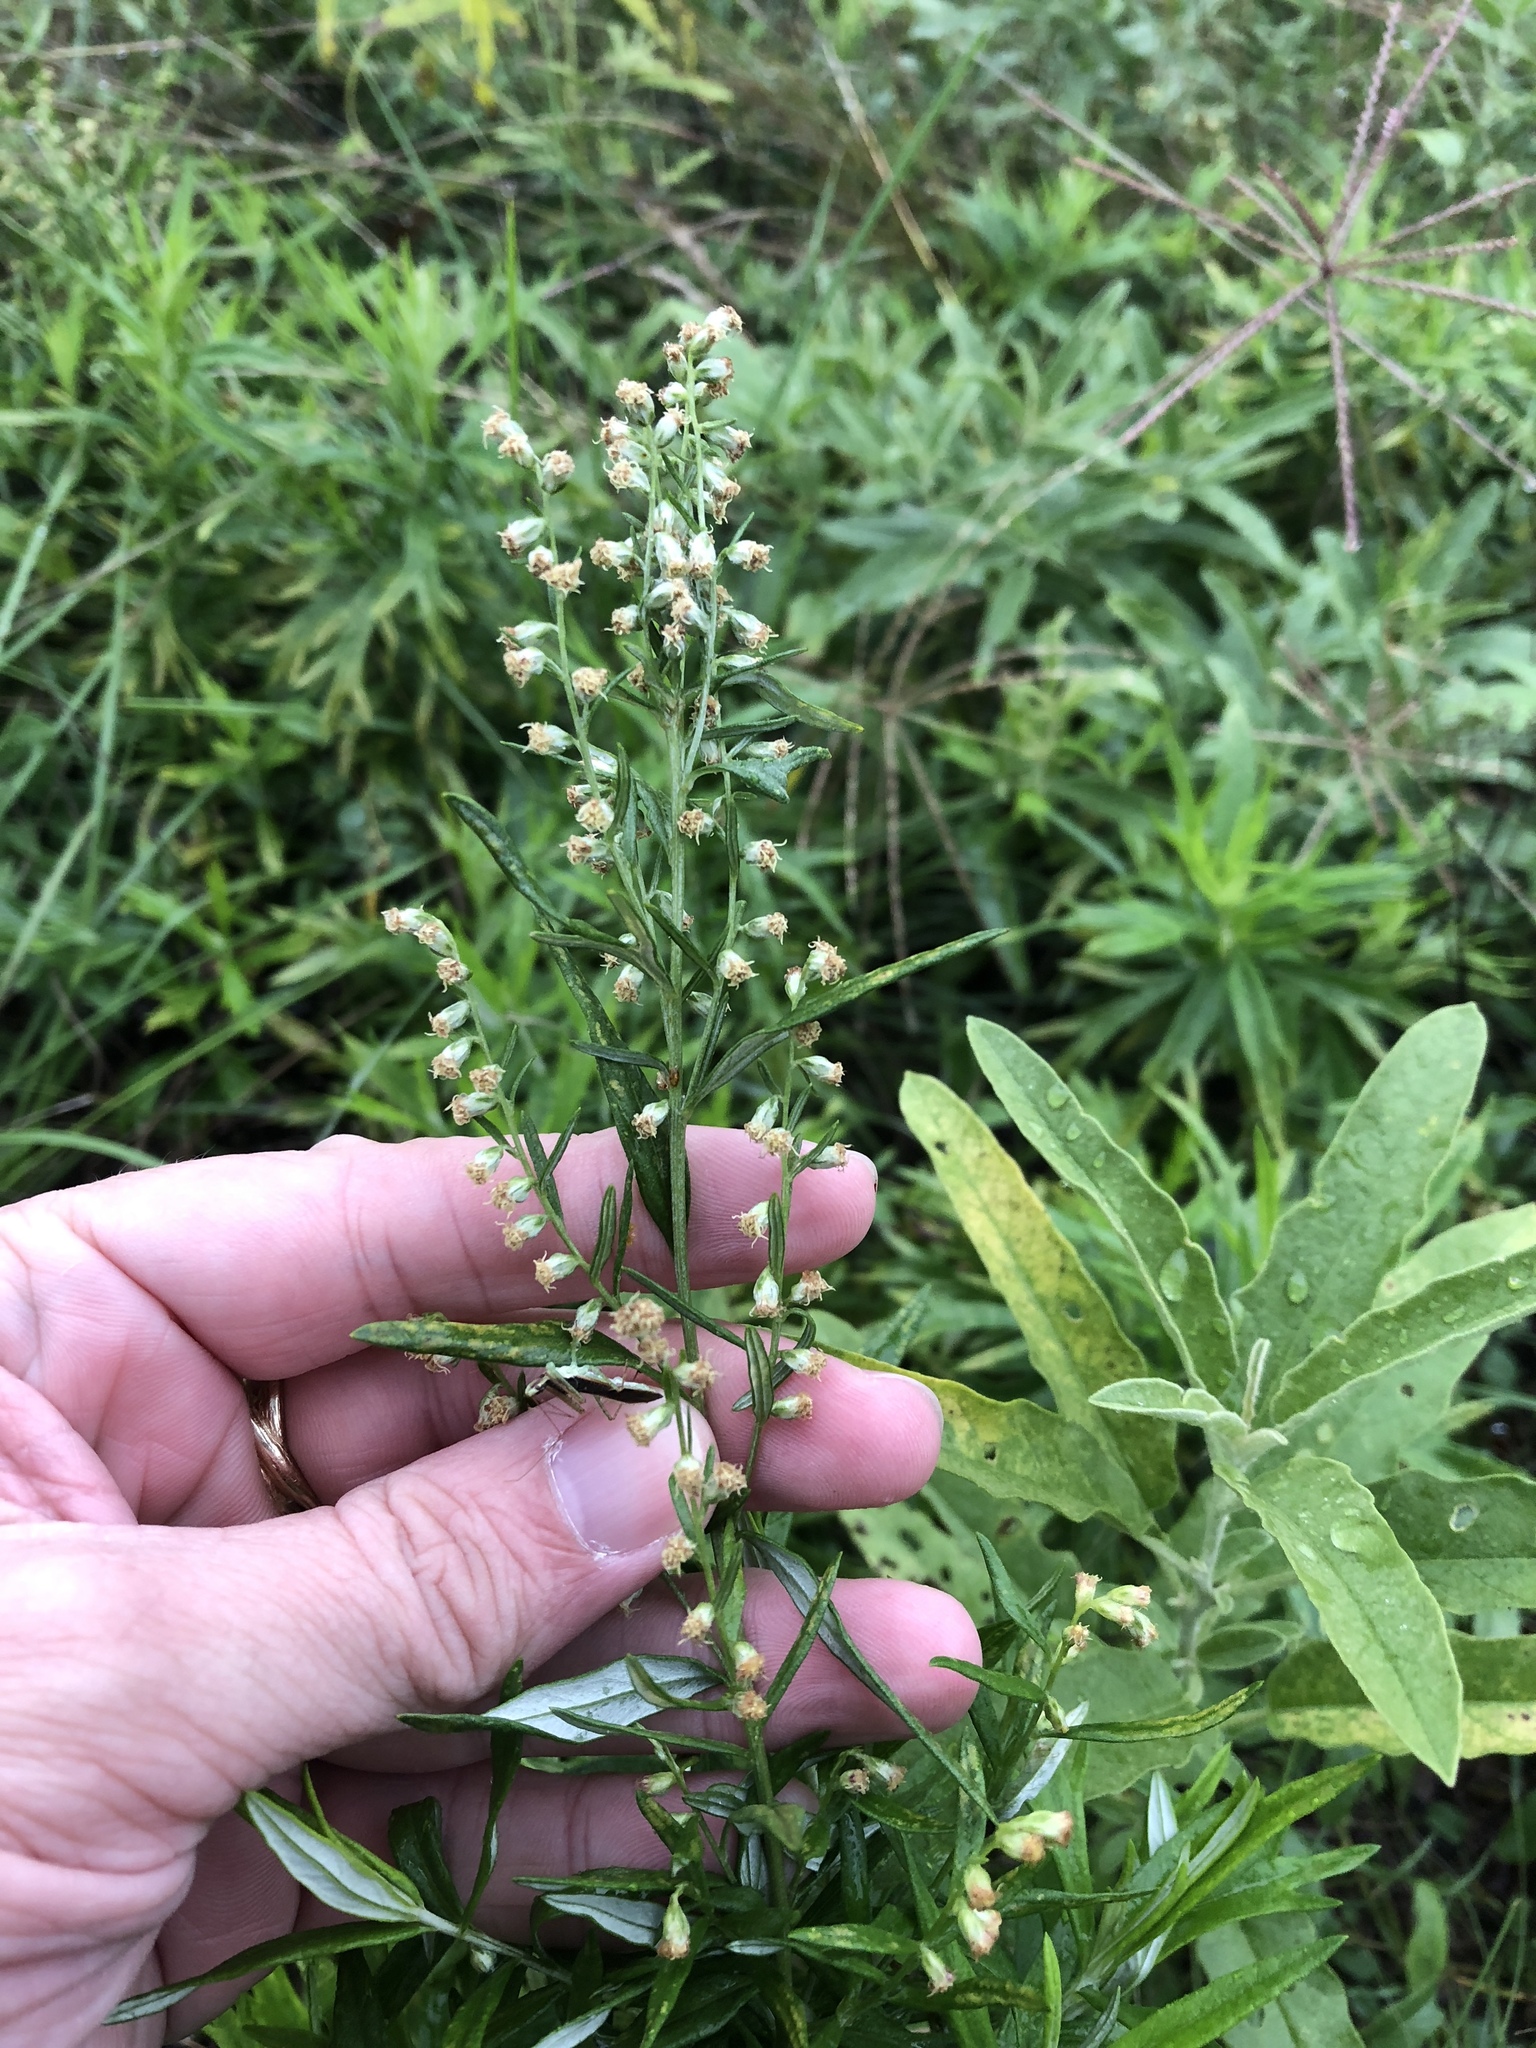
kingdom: Plantae
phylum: Tracheophyta
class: Magnoliopsida
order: Asterales
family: Asteraceae
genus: Artemisia
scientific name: Artemisia ludoviciana
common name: Western mugwort
